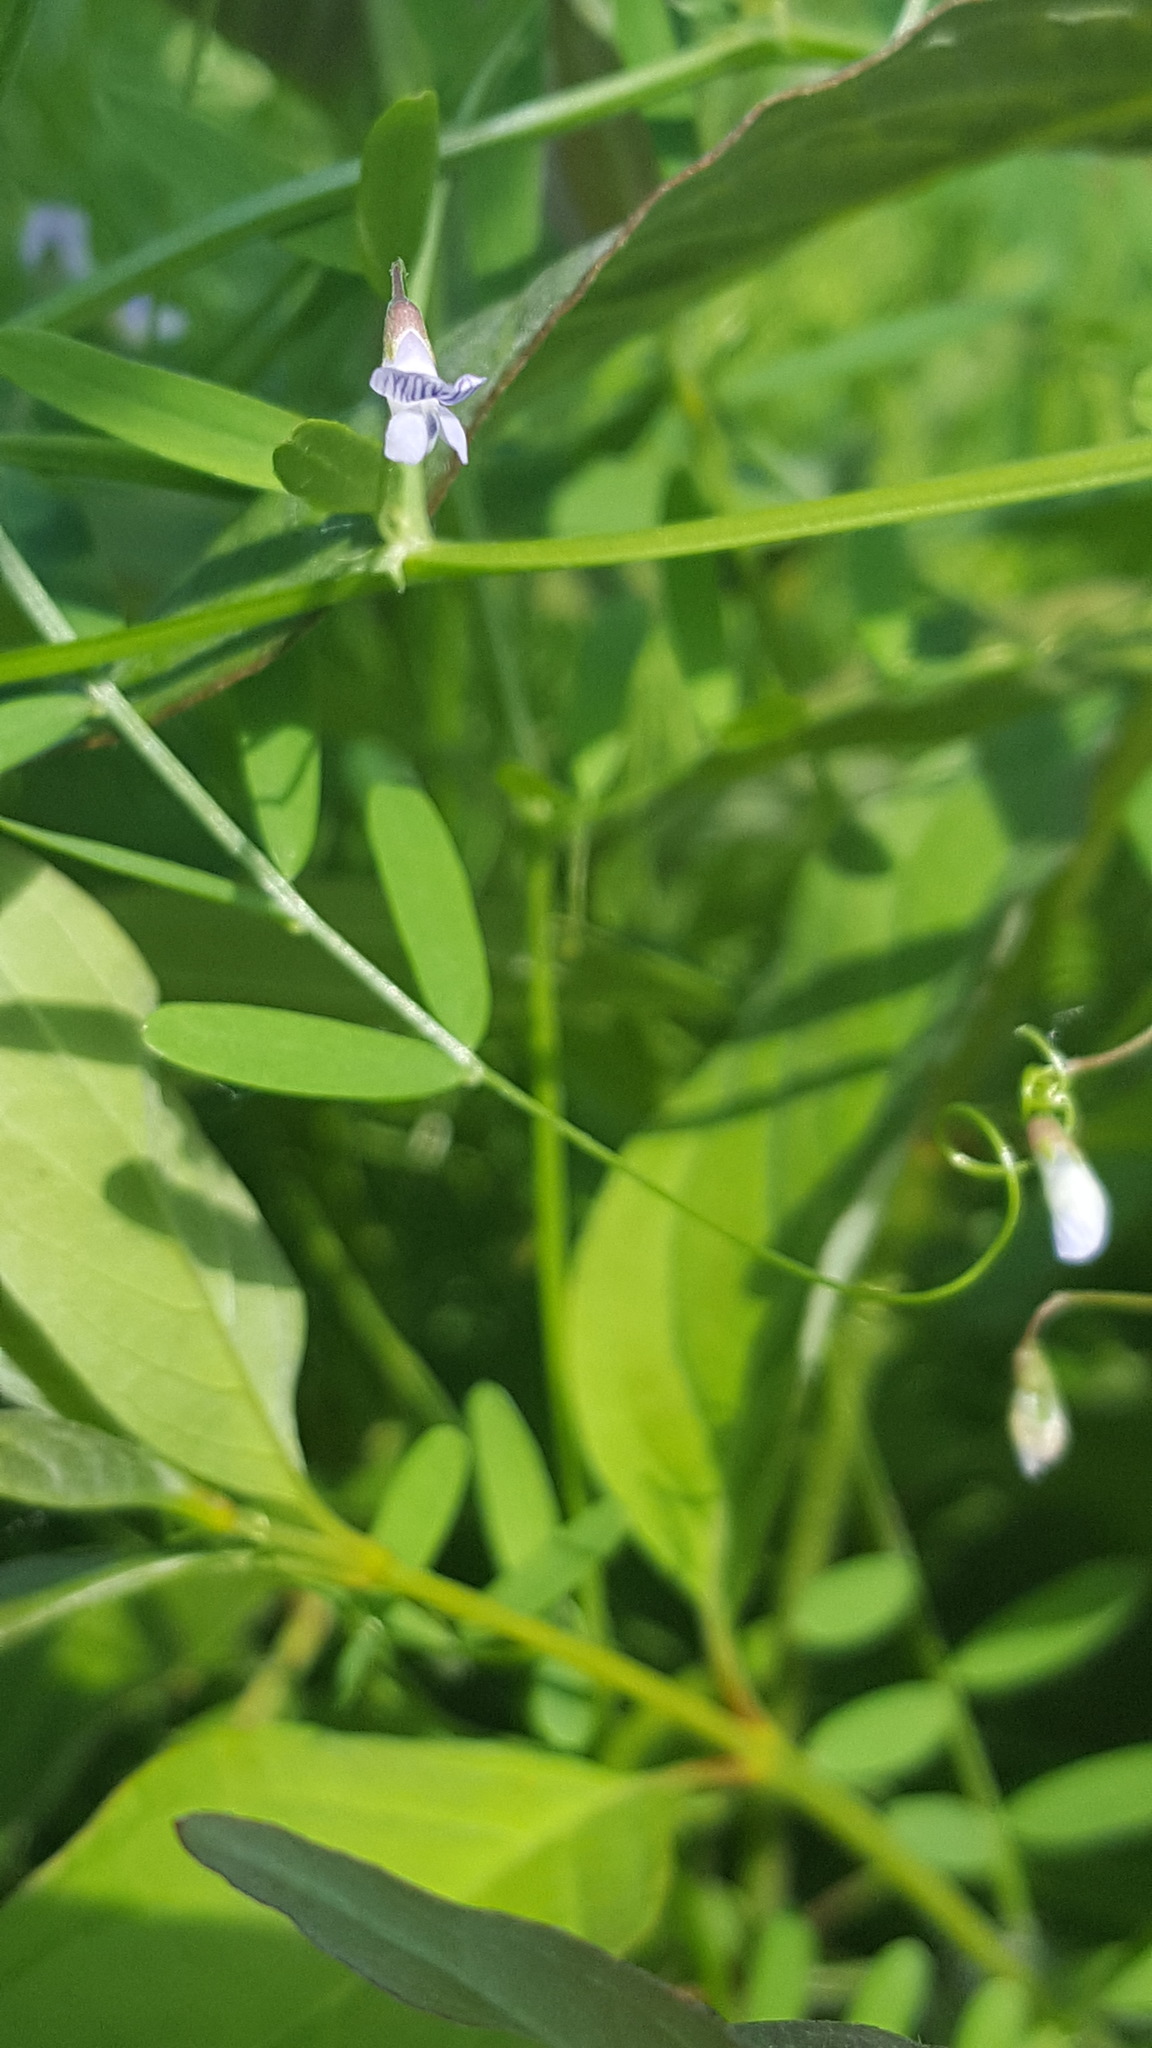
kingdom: Plantae
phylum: Tracheophyta
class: Magnoliopsida
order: Fabales
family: Fabaceae
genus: Vicia
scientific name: Vicia tetrasperma
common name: Smooth tare
